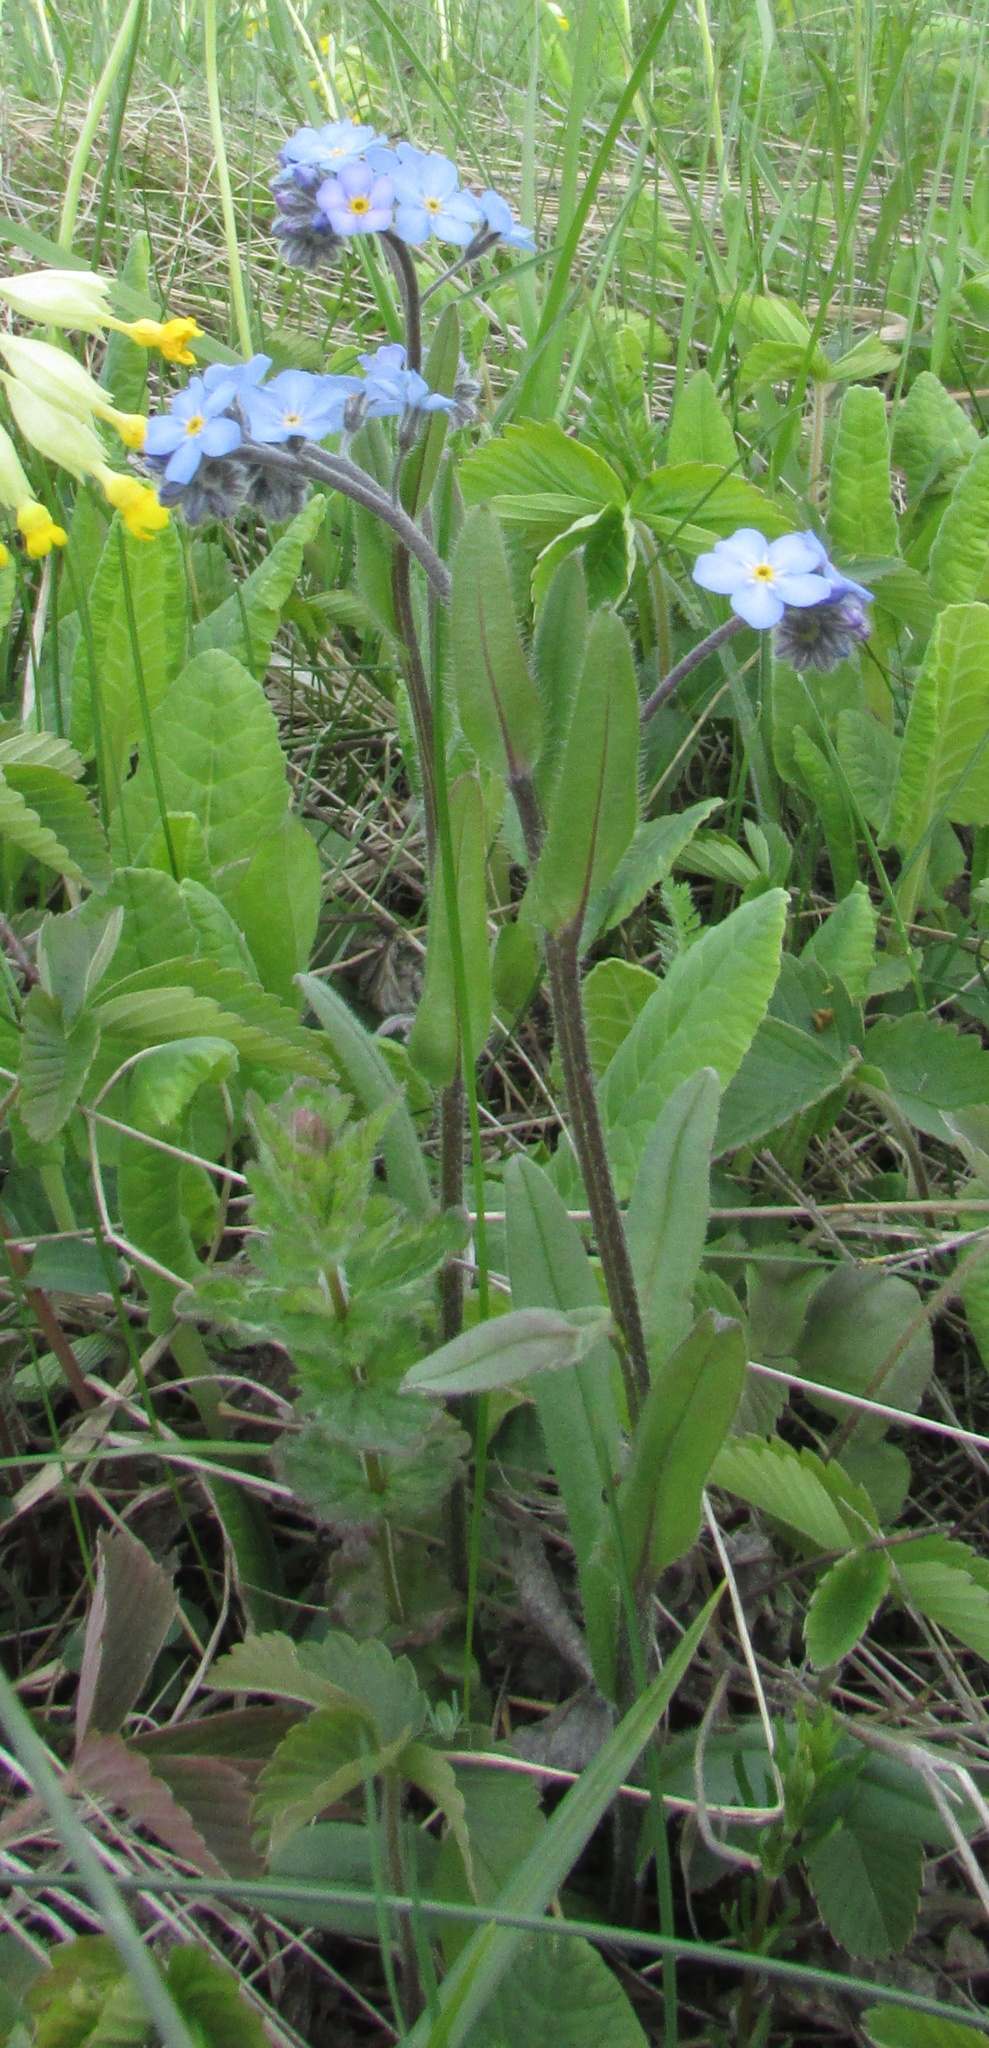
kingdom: Plantae
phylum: Tracheophyta
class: Magnoliopsida
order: Boraginales
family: Boraginaceae
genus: Myosotis
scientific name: Myosotis popovii
